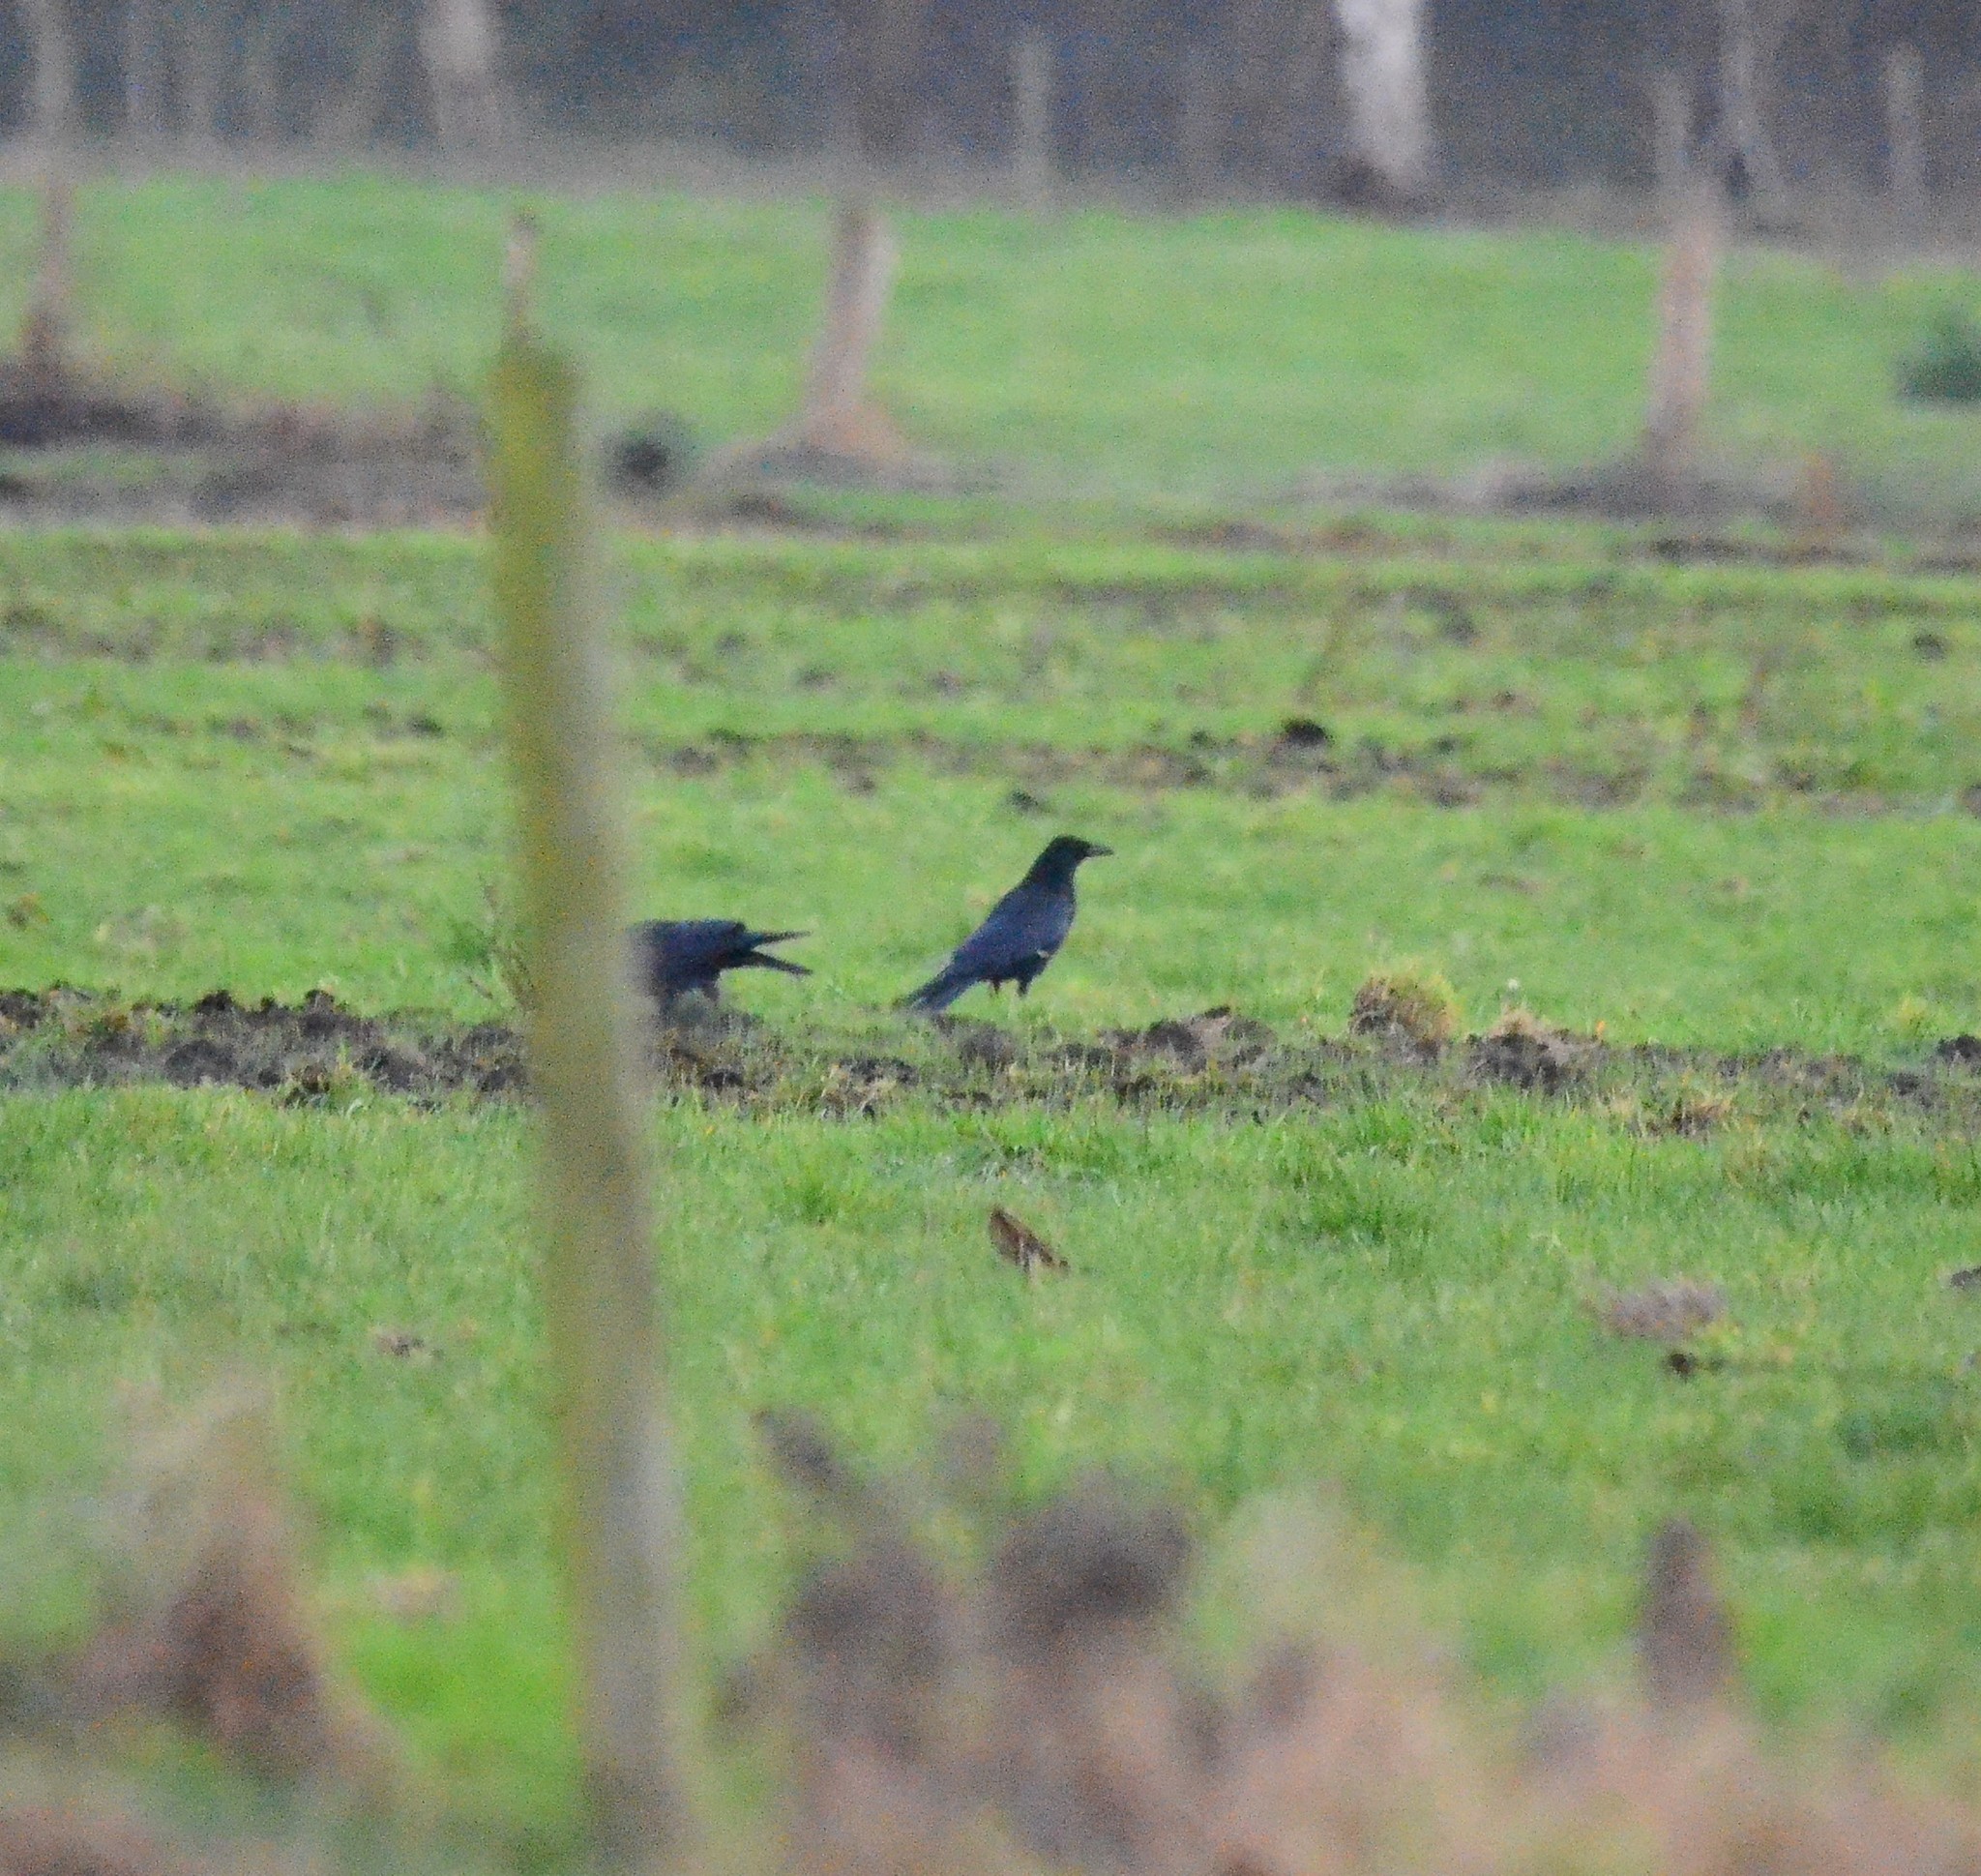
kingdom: Animalia
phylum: Chordata
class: Aves
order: Passeriformes
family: Corvidae
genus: Corvus
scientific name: Corvus corone
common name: Carrion crow
